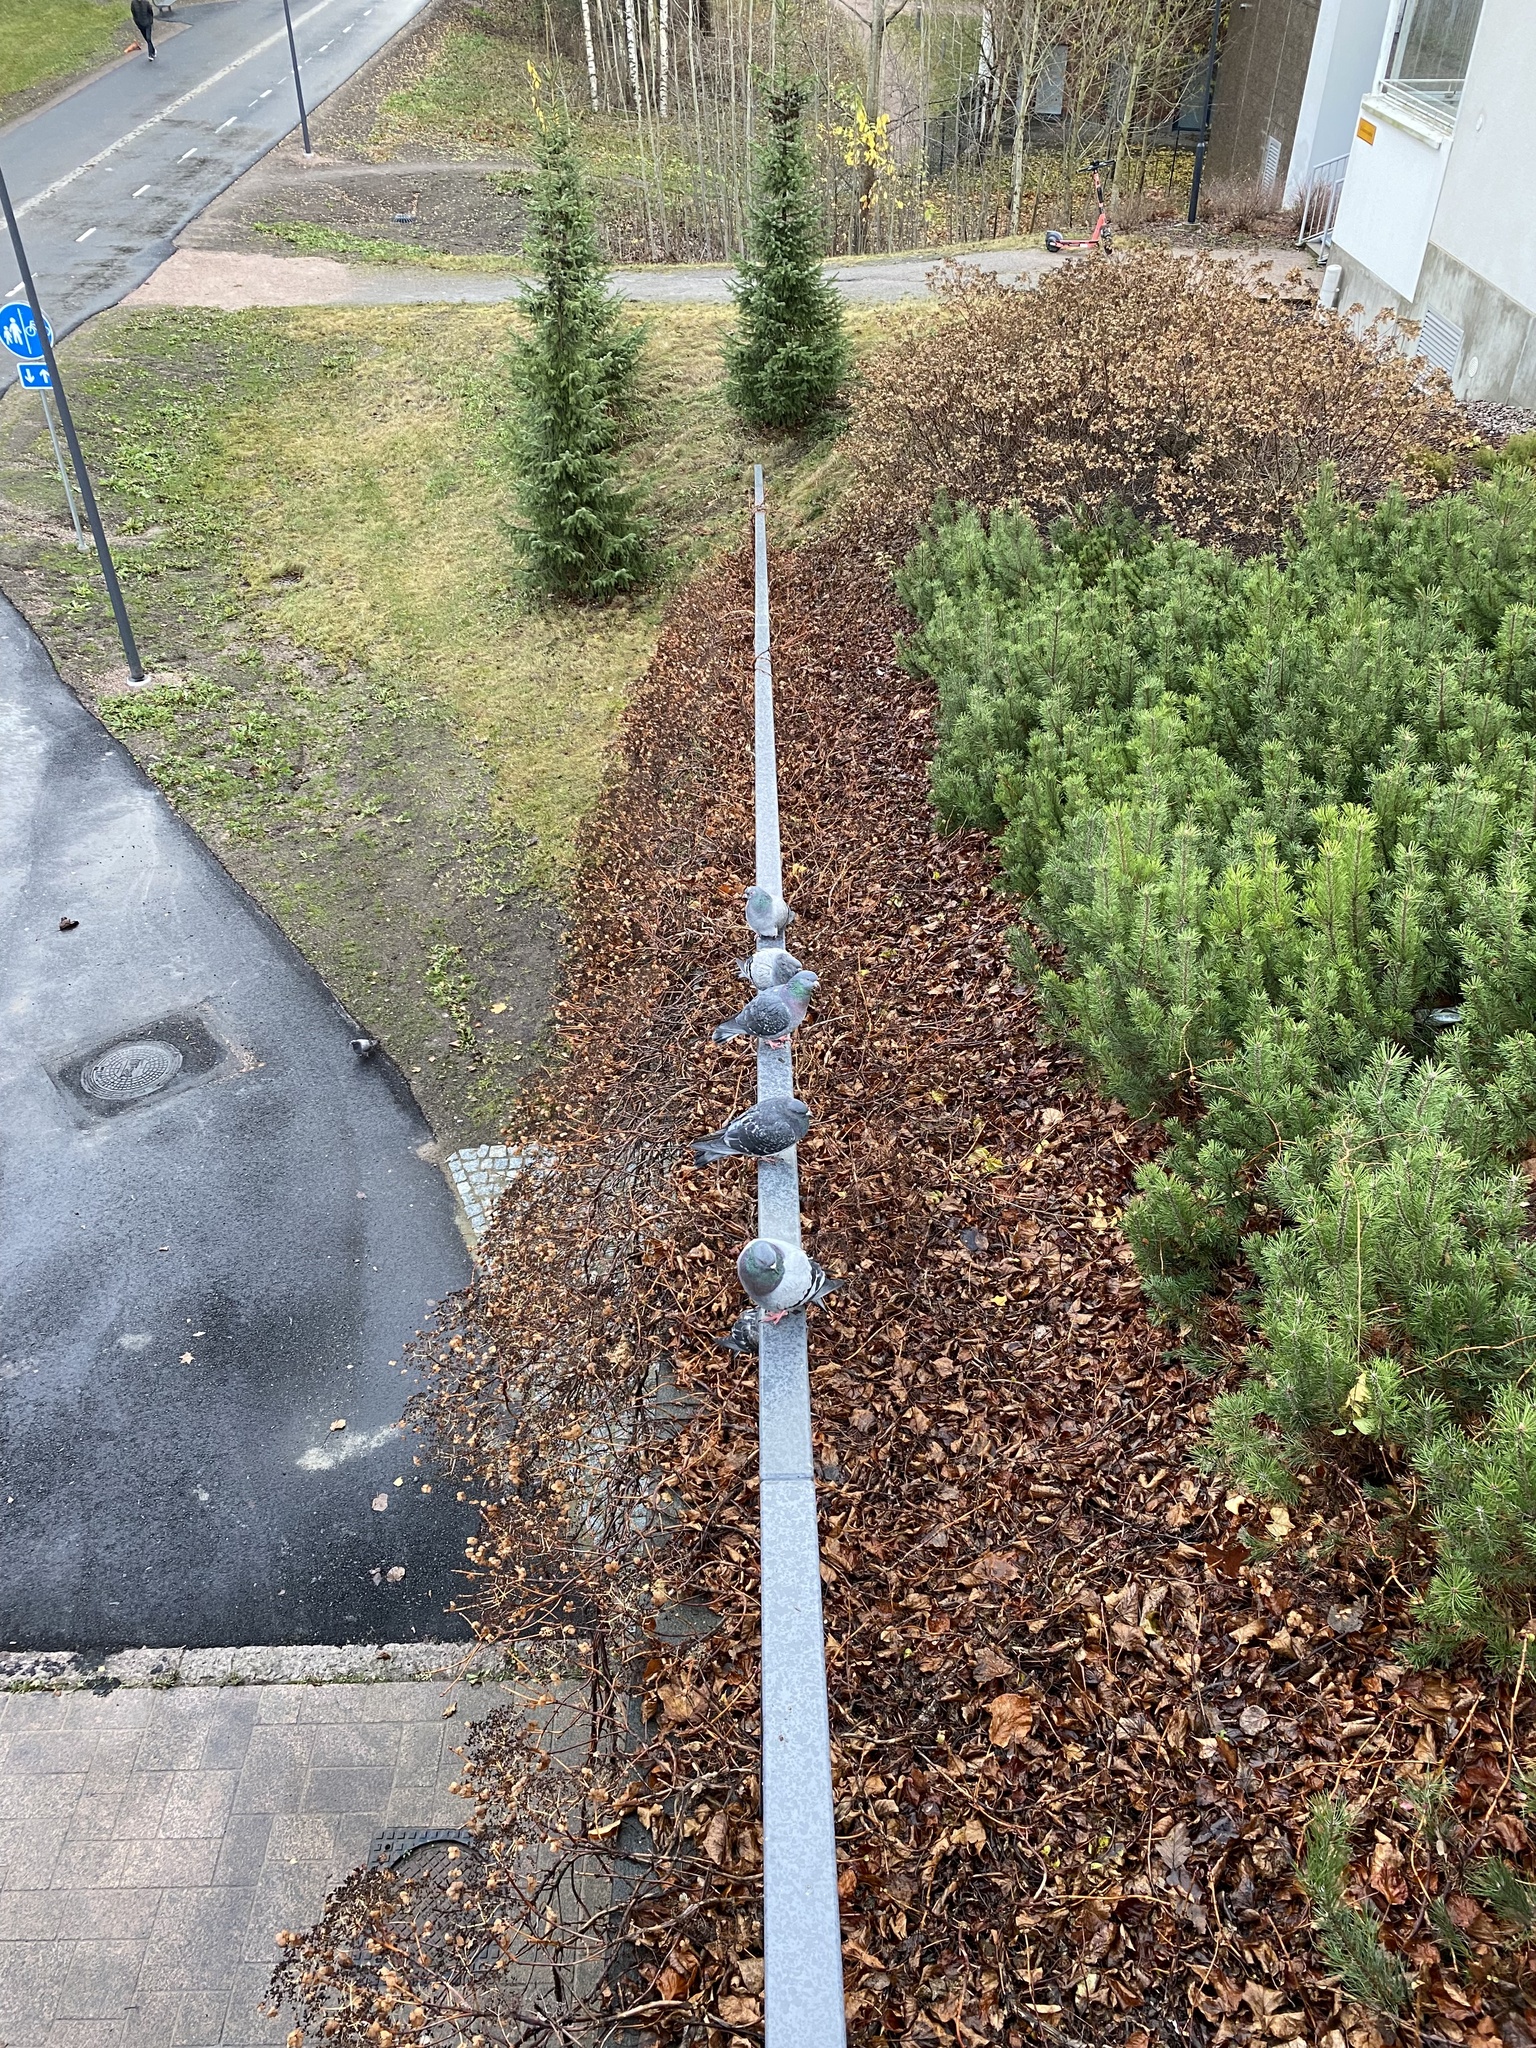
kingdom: Animalia
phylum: Chordata
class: Aves
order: Columbiformes
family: Columbidae
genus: Columba
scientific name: Columba livia
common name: Rock pigeon
